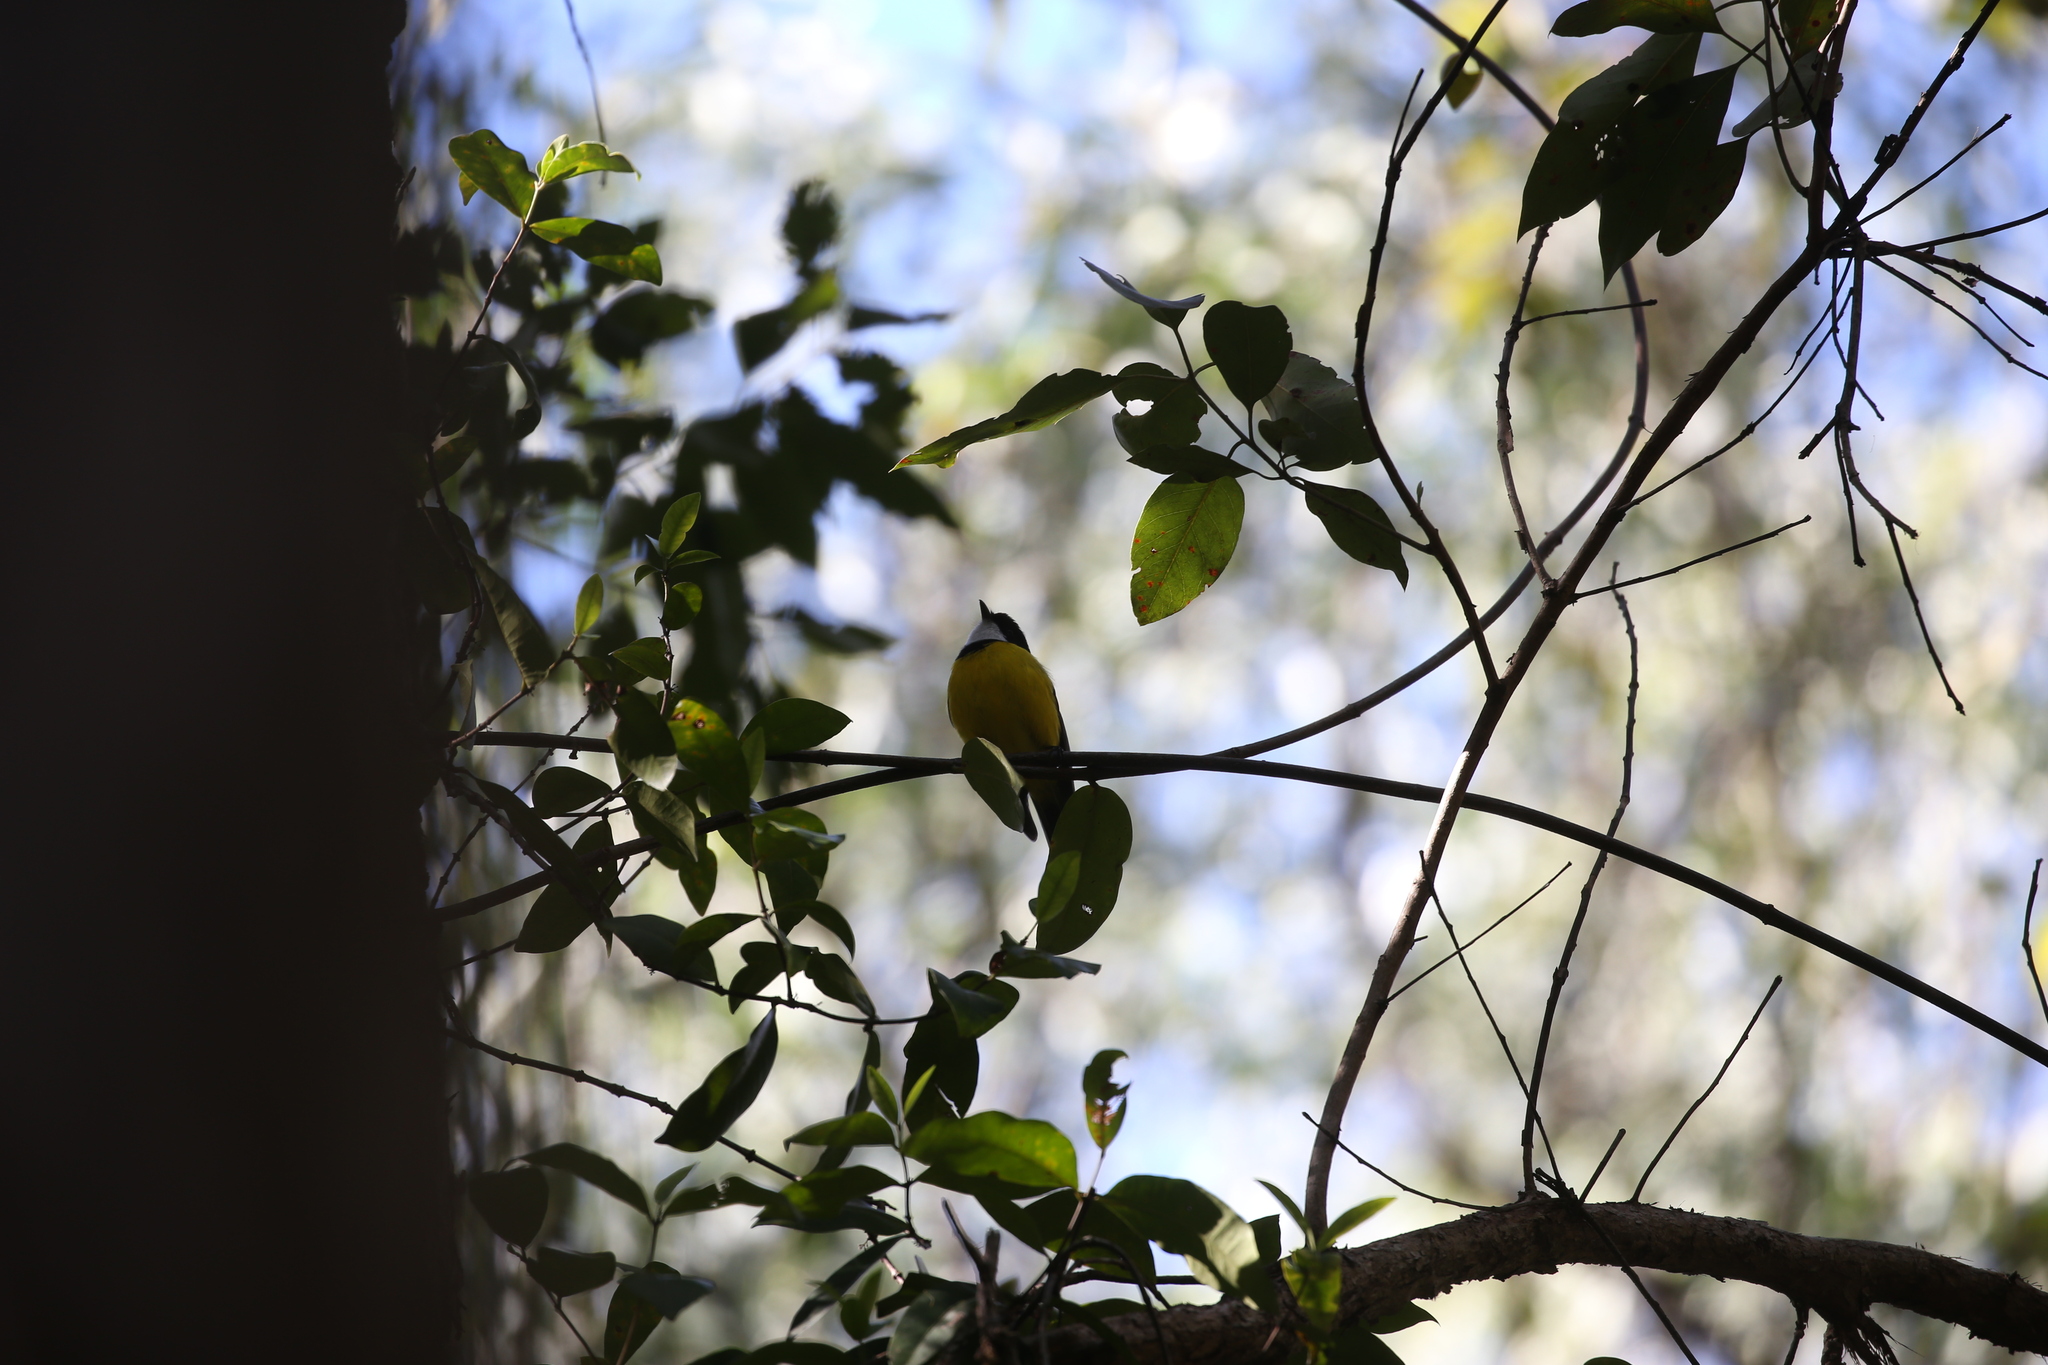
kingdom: Animalia
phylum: Chordata
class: Aves
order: Passeriformes
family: Pachycephalidae
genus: Pachycephala
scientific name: Pachycephala pectoralis
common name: Australian golden whistler
